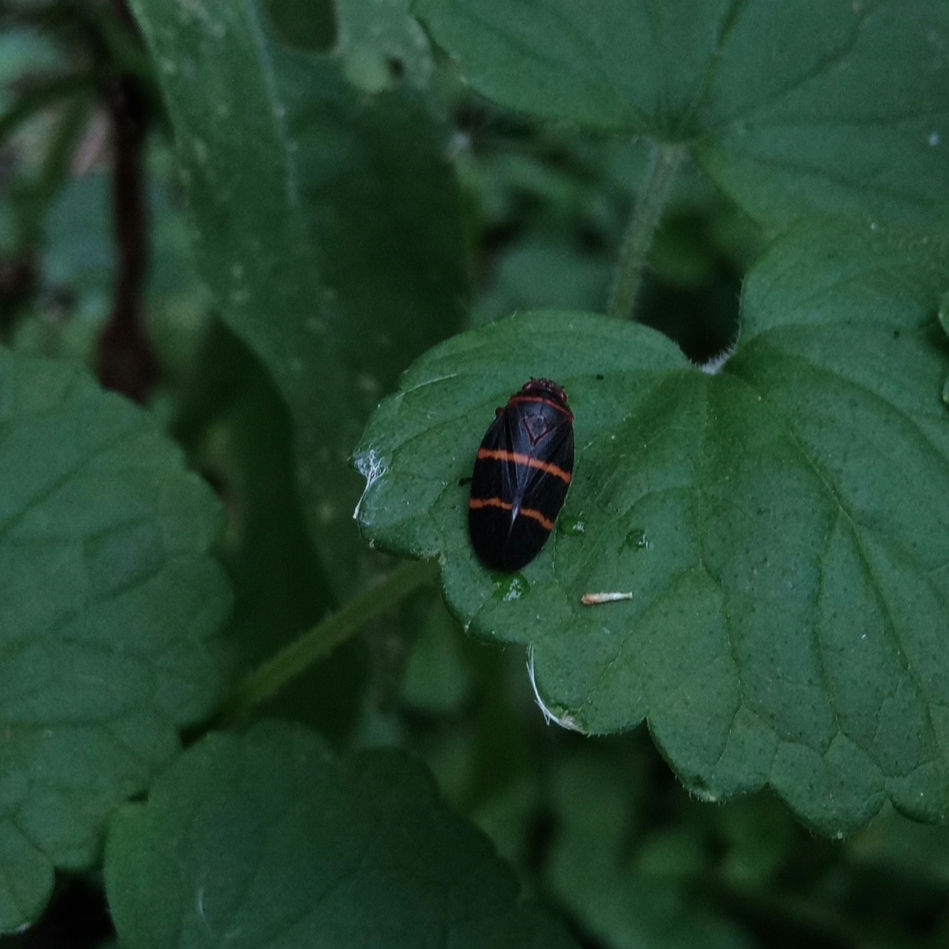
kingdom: Animalia
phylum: Arthropoda
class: Insecta
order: Hemiptera
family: Cercopidae
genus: Prosapia
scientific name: Prosapia bicincta
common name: Twolined spittlebug
